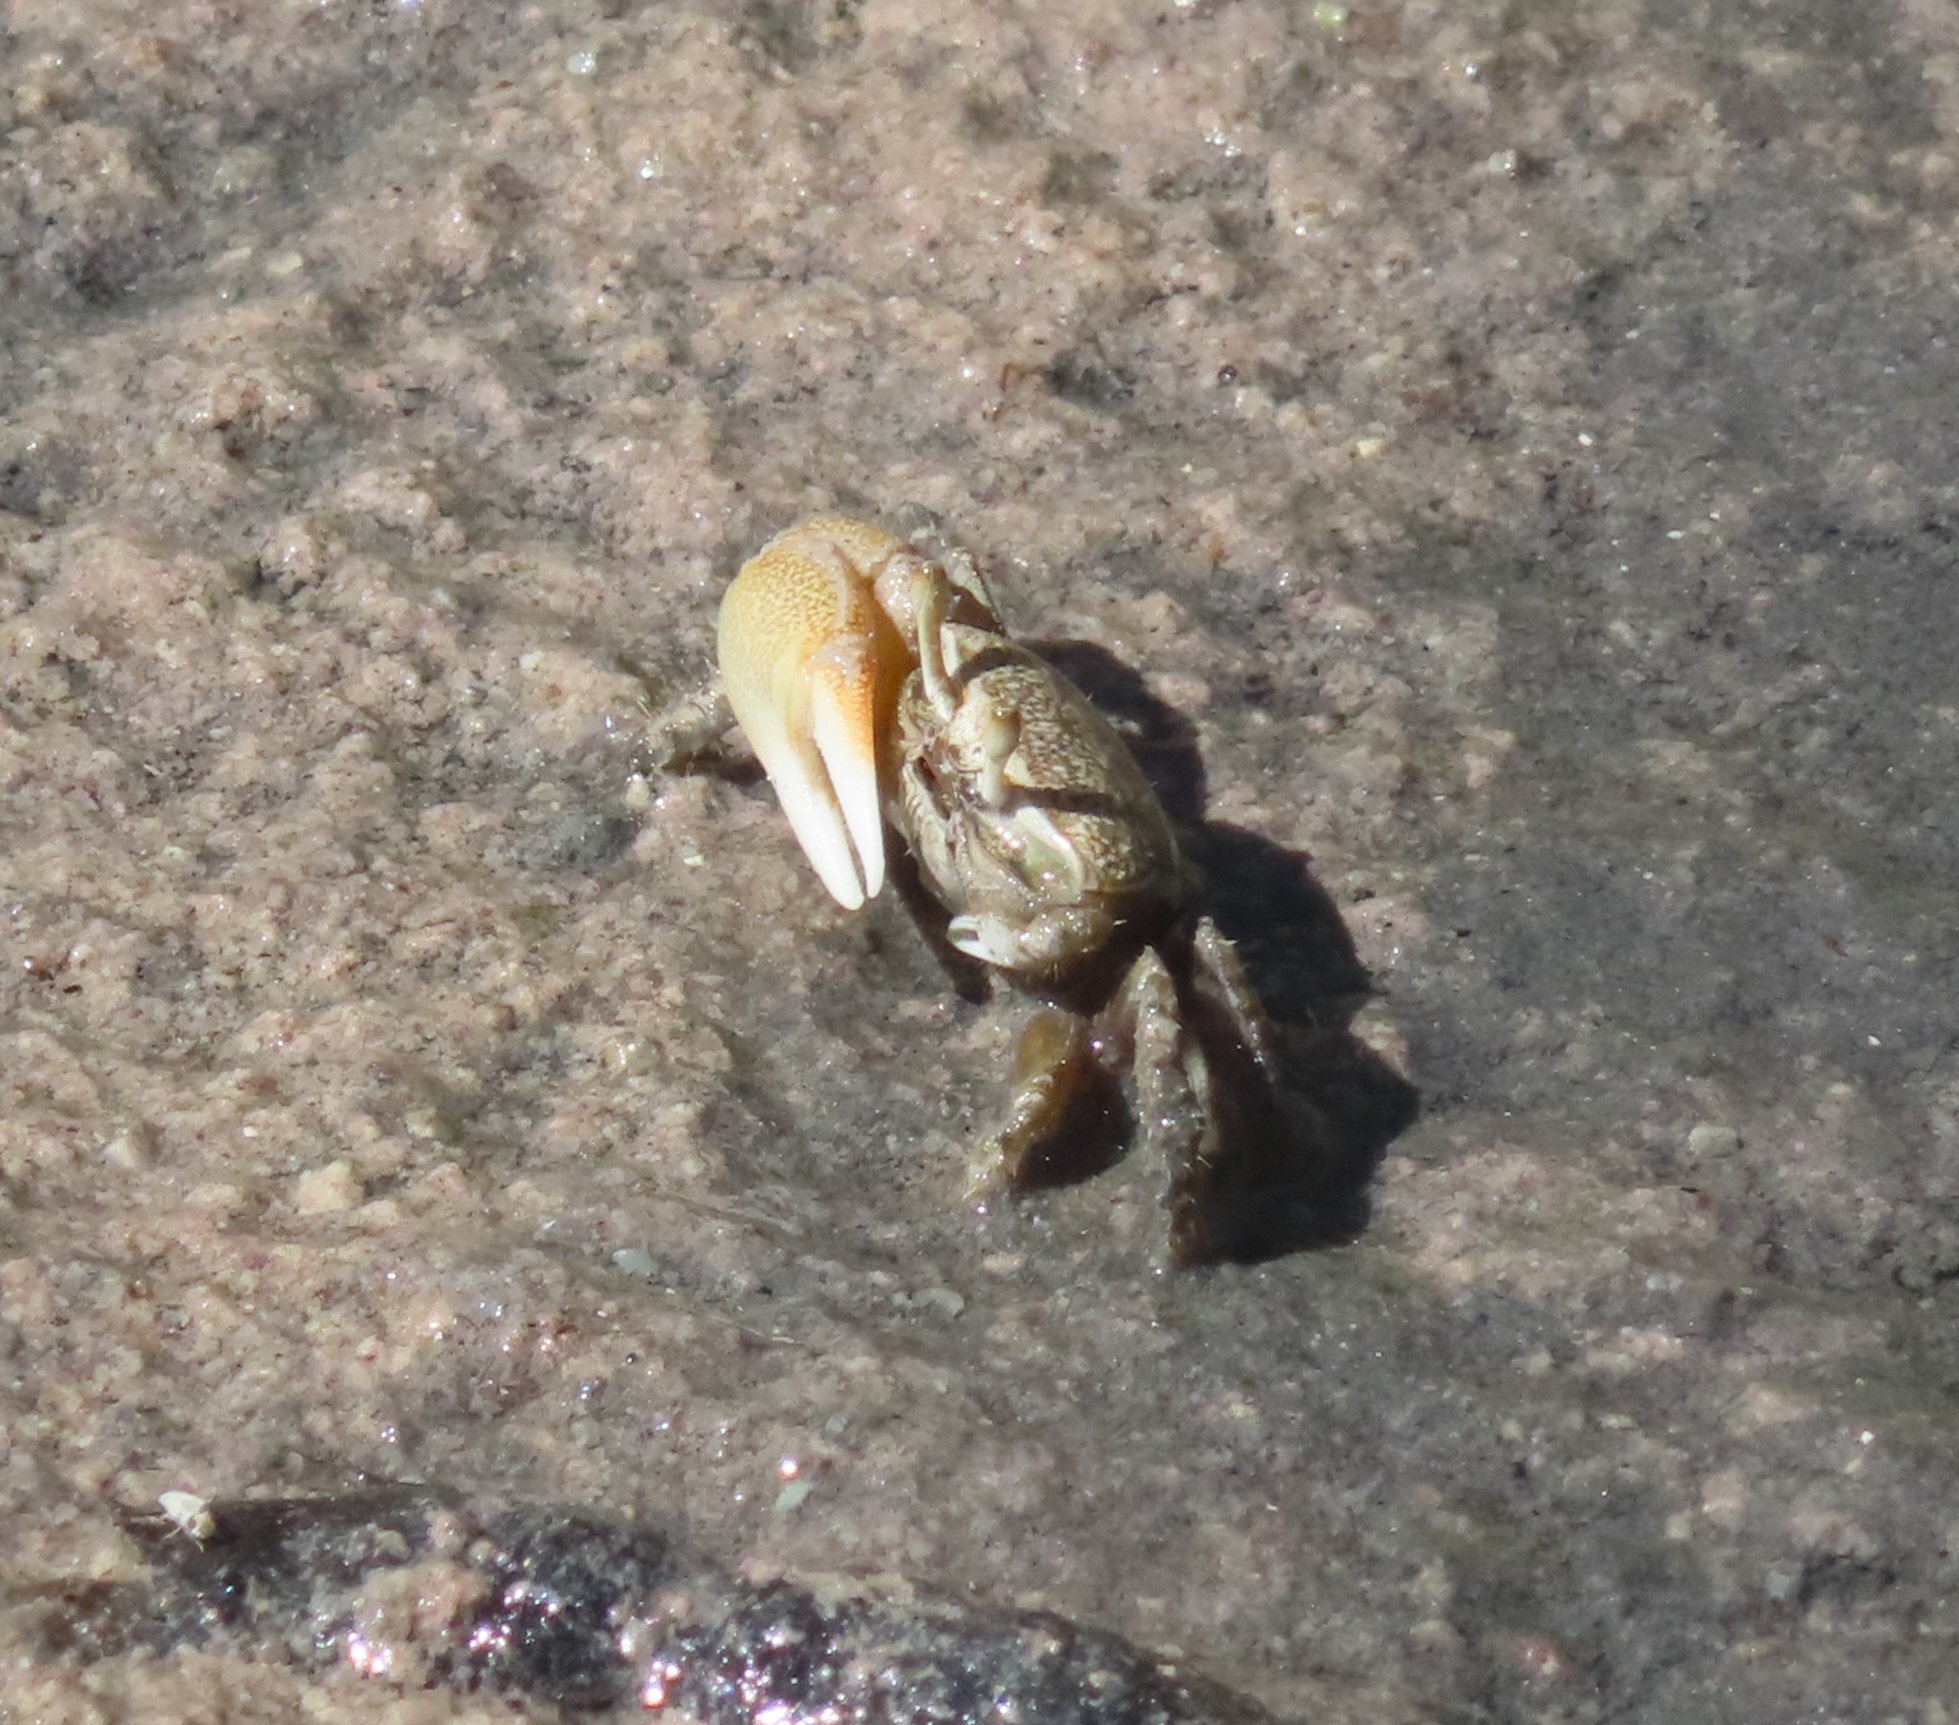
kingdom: Animalia
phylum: Arthropoda
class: Malacostraca
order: Decapoda
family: Ocypodidae
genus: Minuca
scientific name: Minuca rapax
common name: Rapacious fiddler crab
